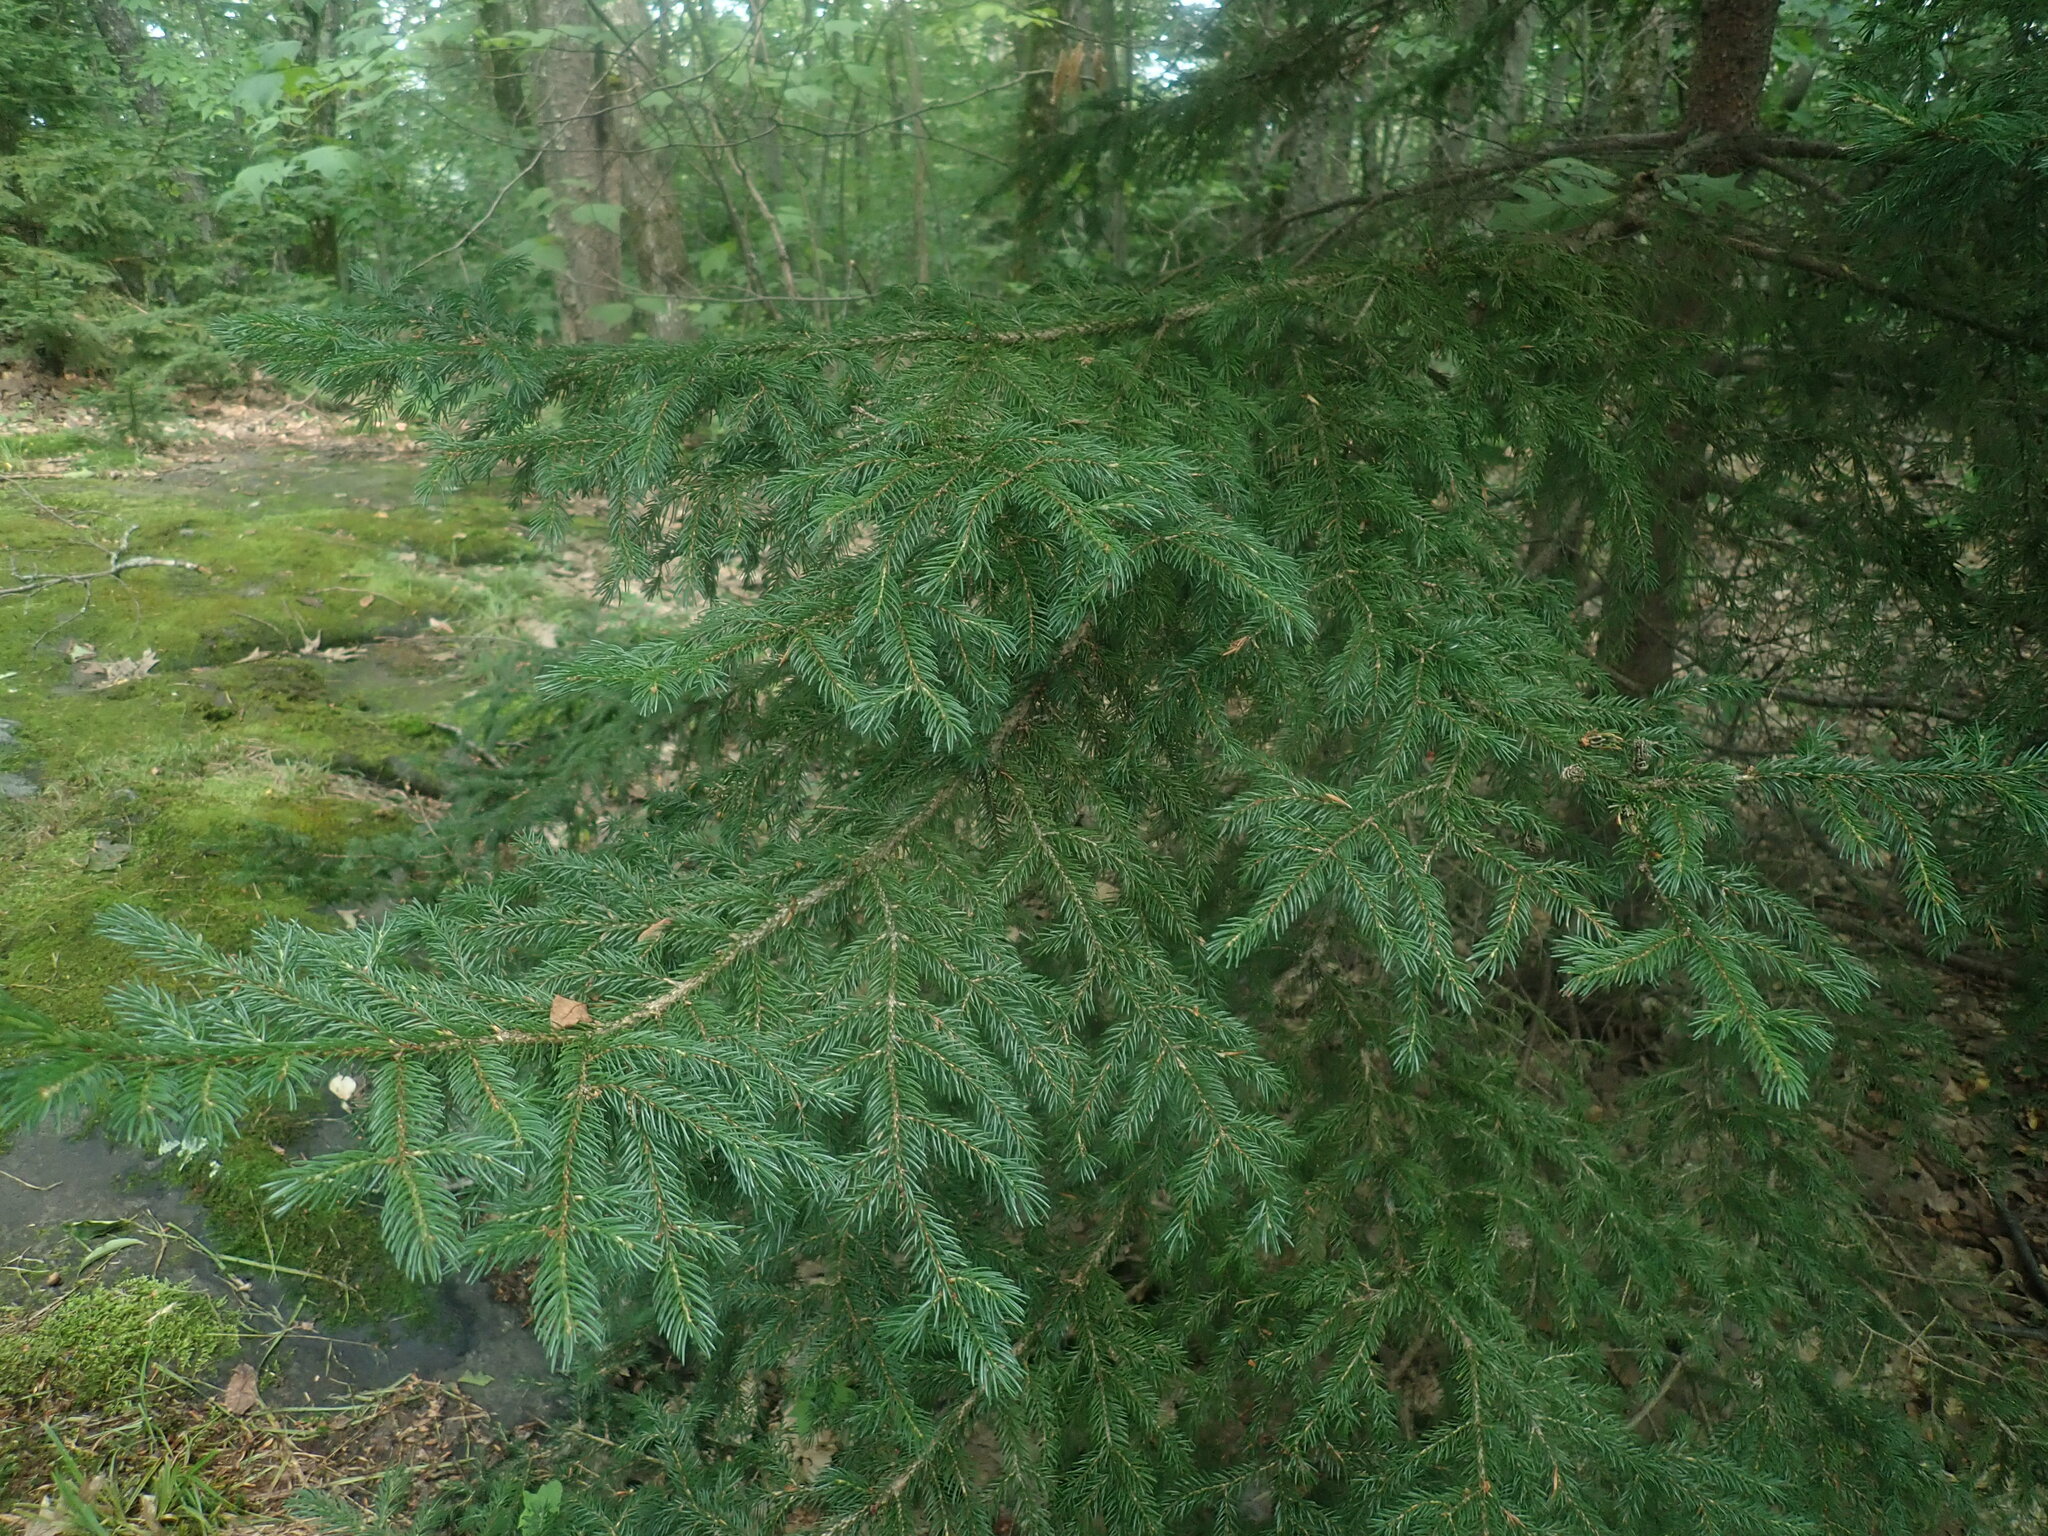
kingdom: Plantae
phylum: Tracheophyta
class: Pinopsida
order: Pinales
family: Pinaceae
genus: Picea
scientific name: Picea rubens
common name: Red spruce
